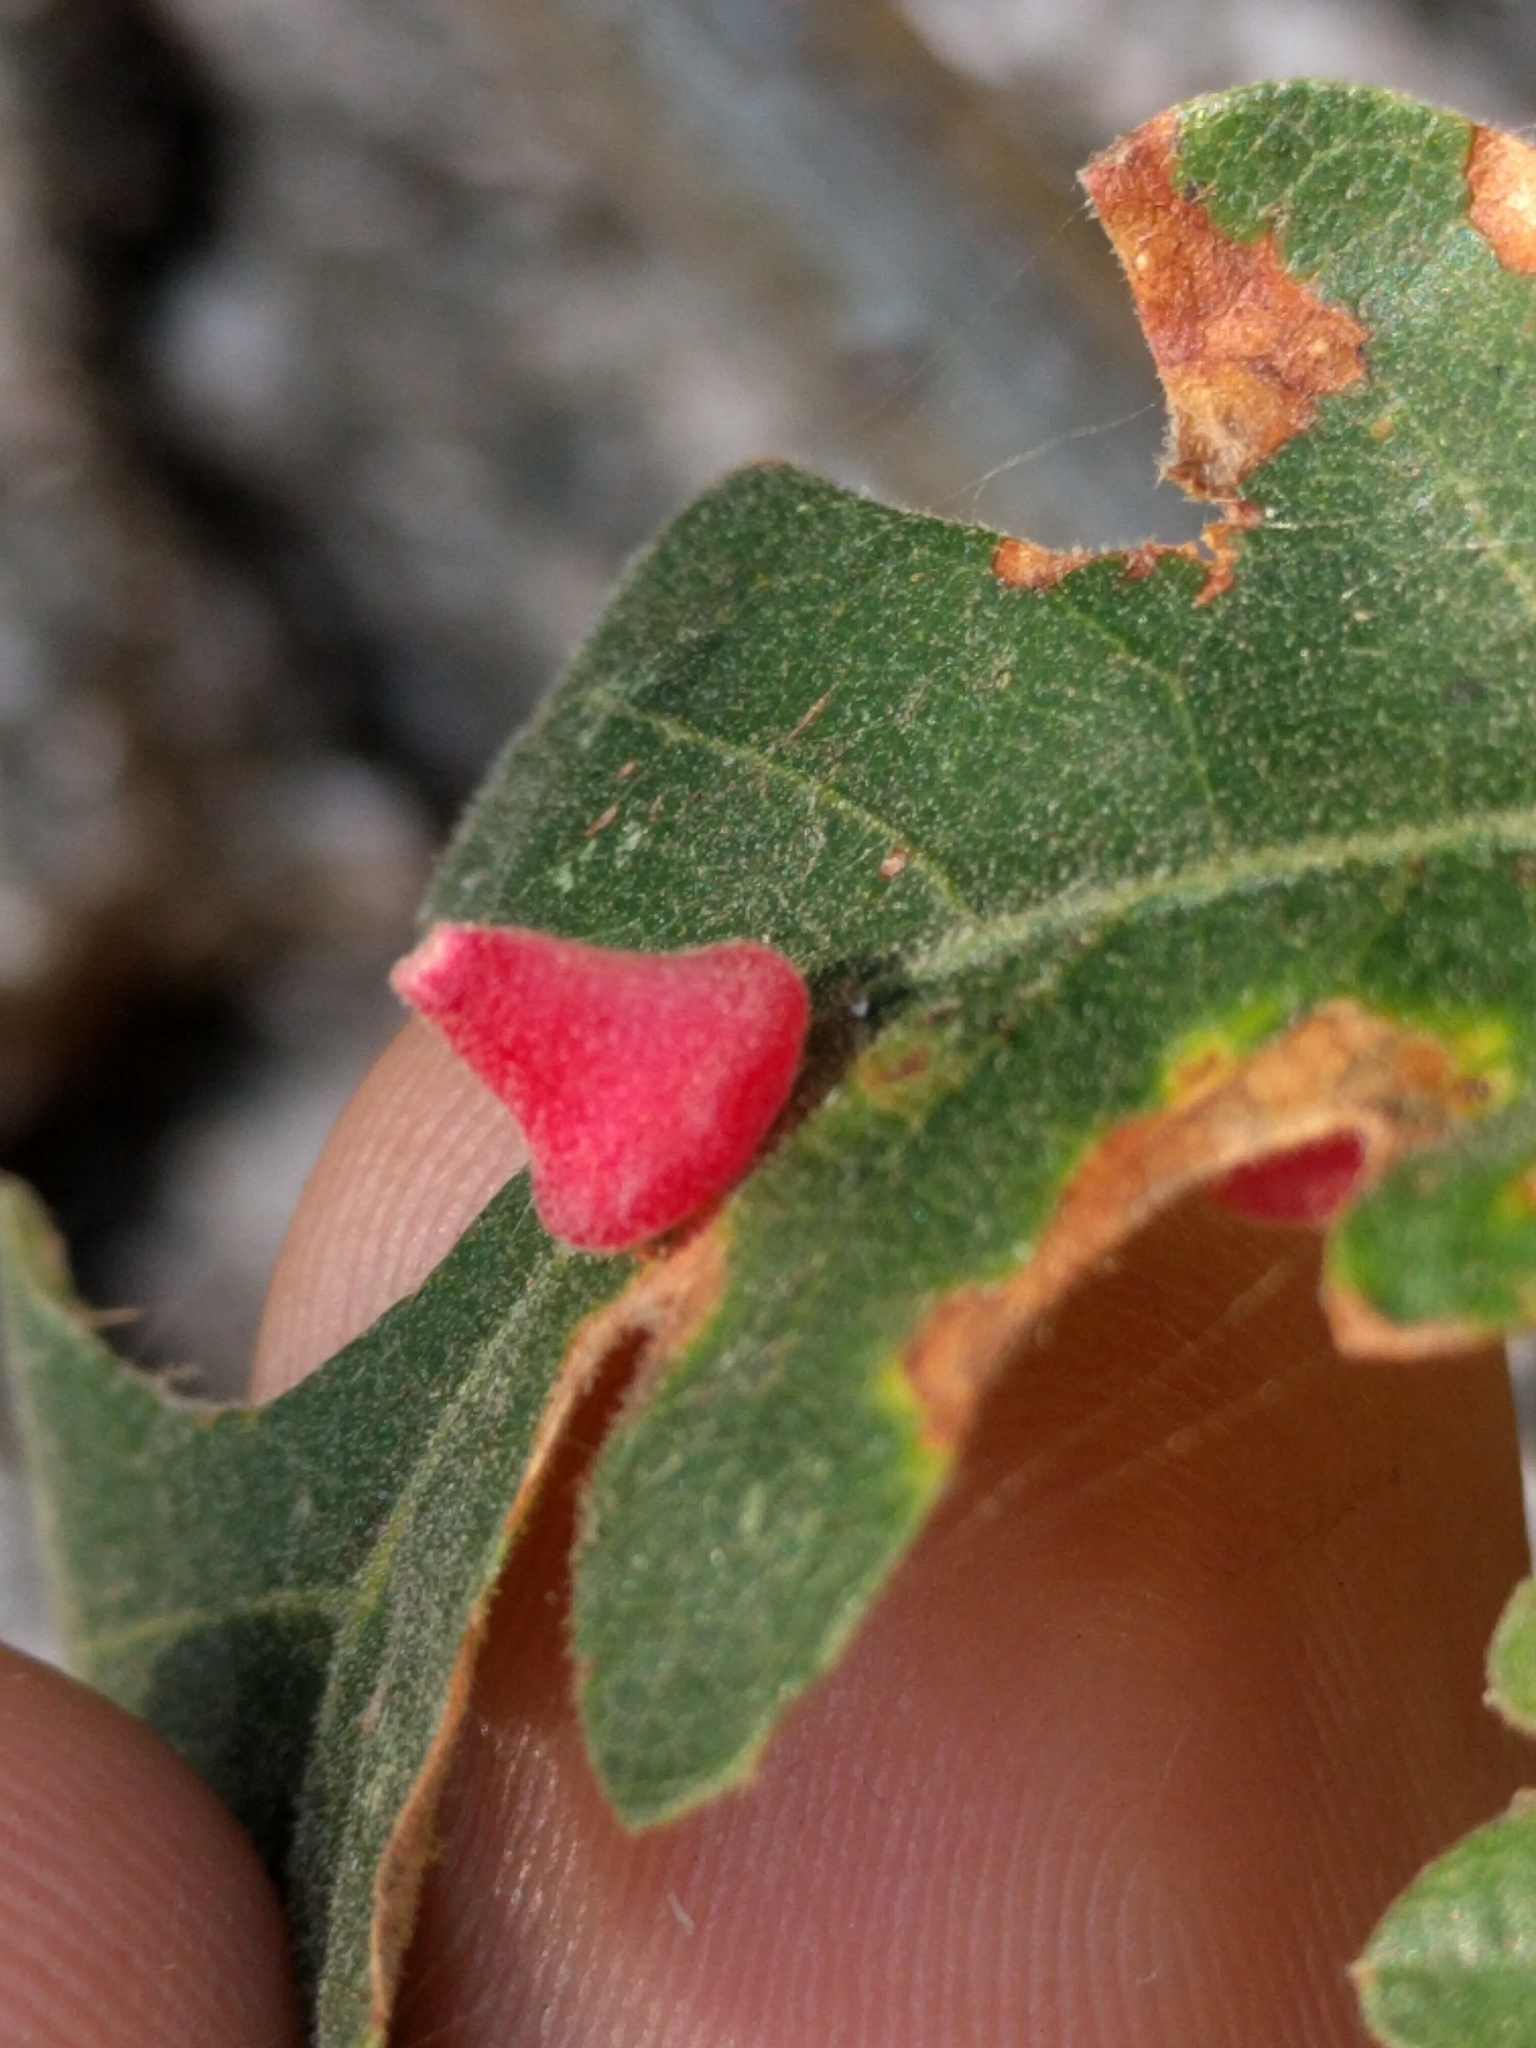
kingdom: Animalia
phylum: Arthropoda
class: Insecta
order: Hymenoptera
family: Cynipidae
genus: Andricus
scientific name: Andricus
